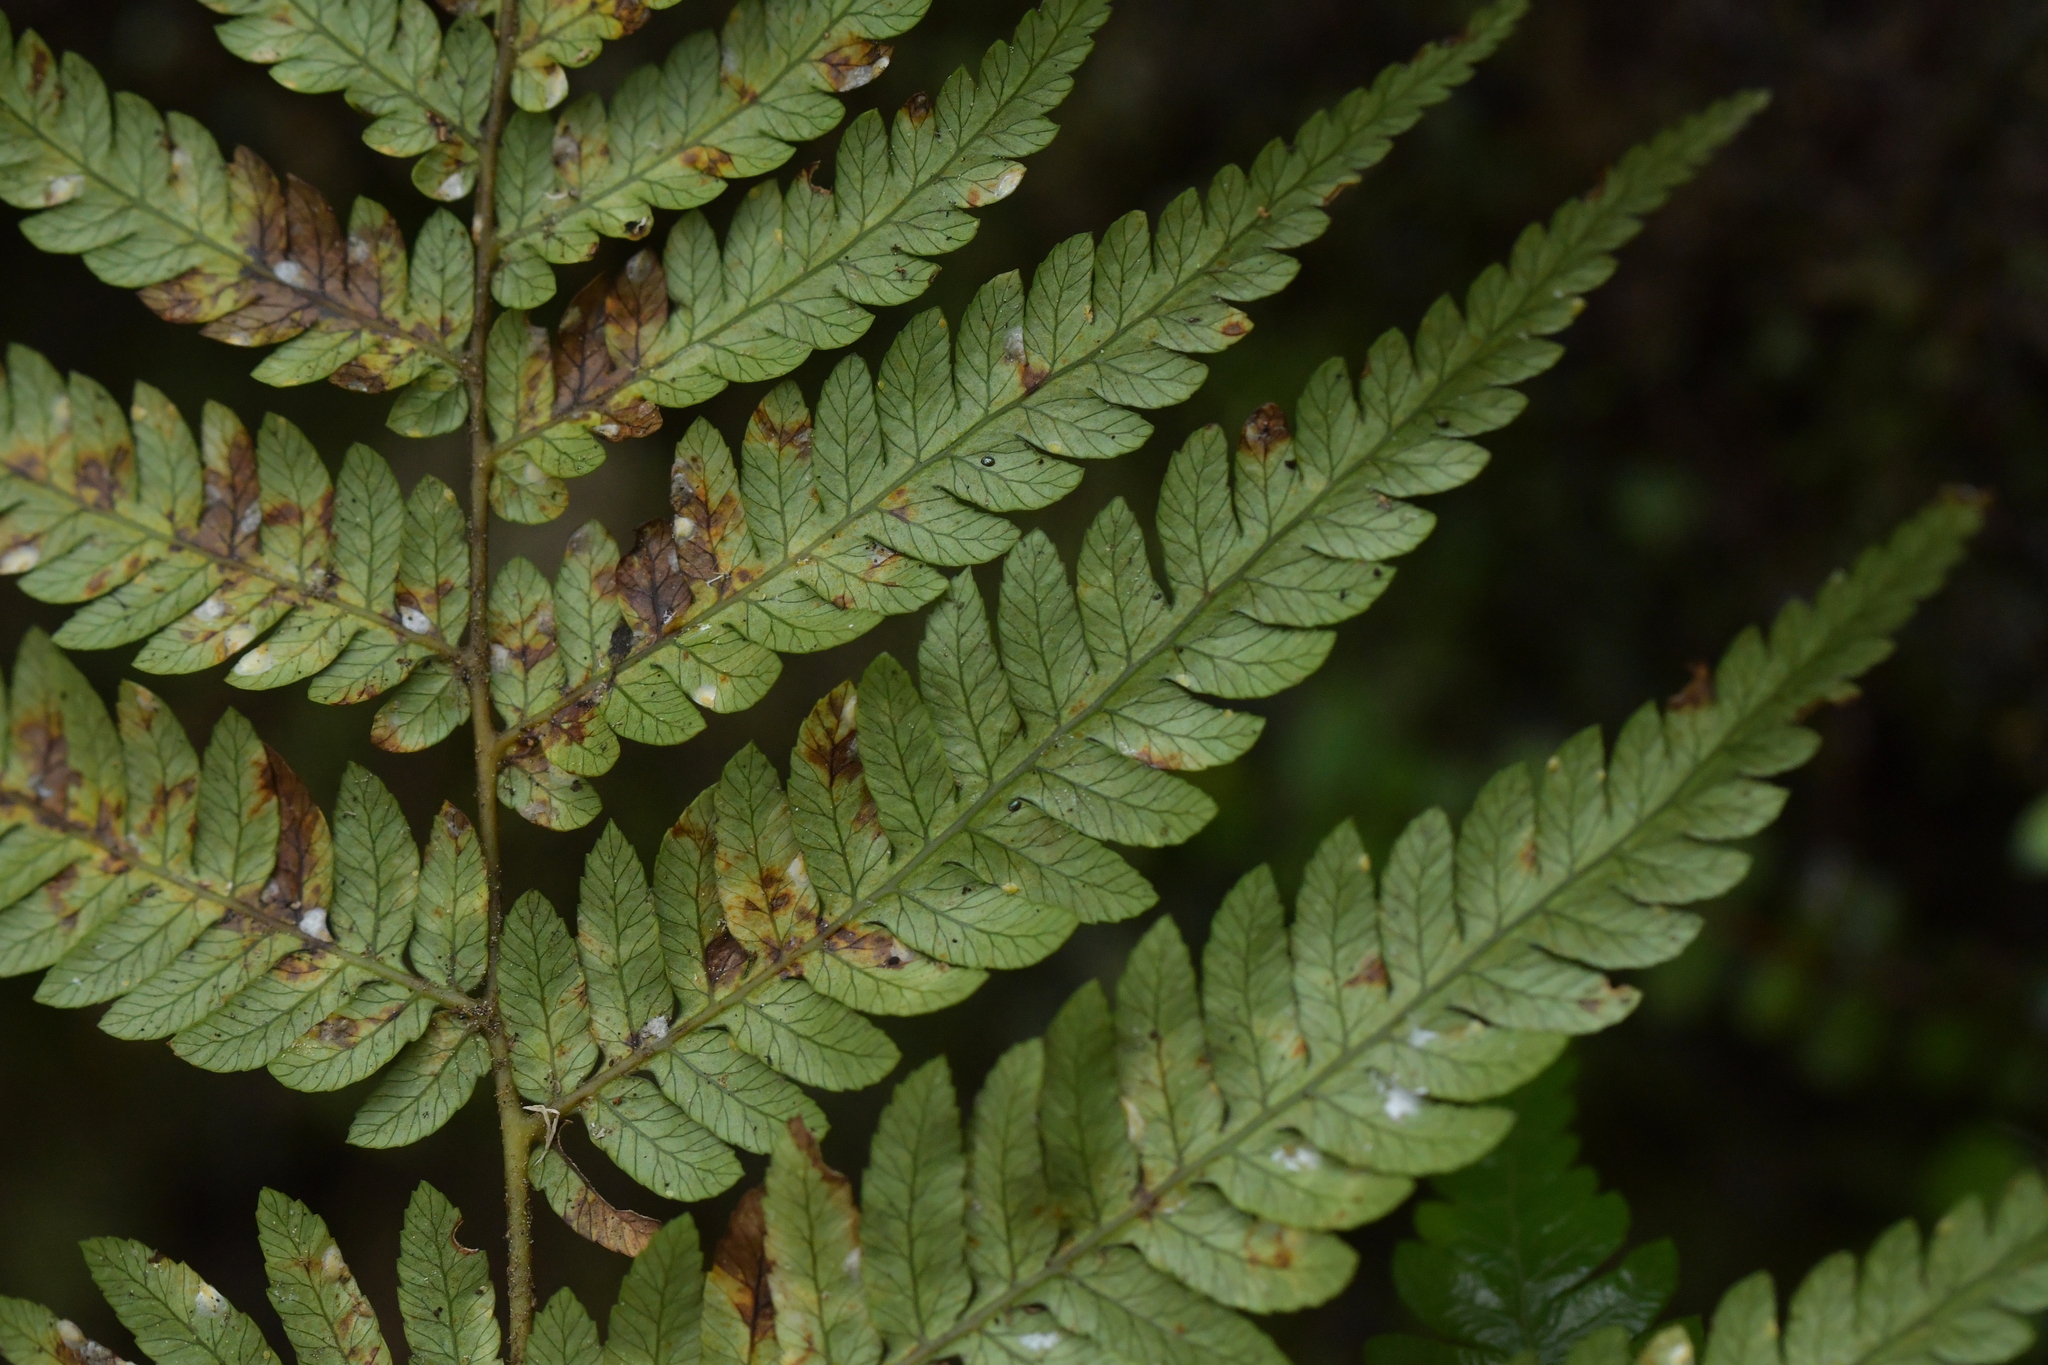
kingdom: Plantae
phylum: Tracheophyta
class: Polypodiopsida
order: Cyatheales
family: Cyatheaceae
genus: Alsophila
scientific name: Alsophila dealbata
